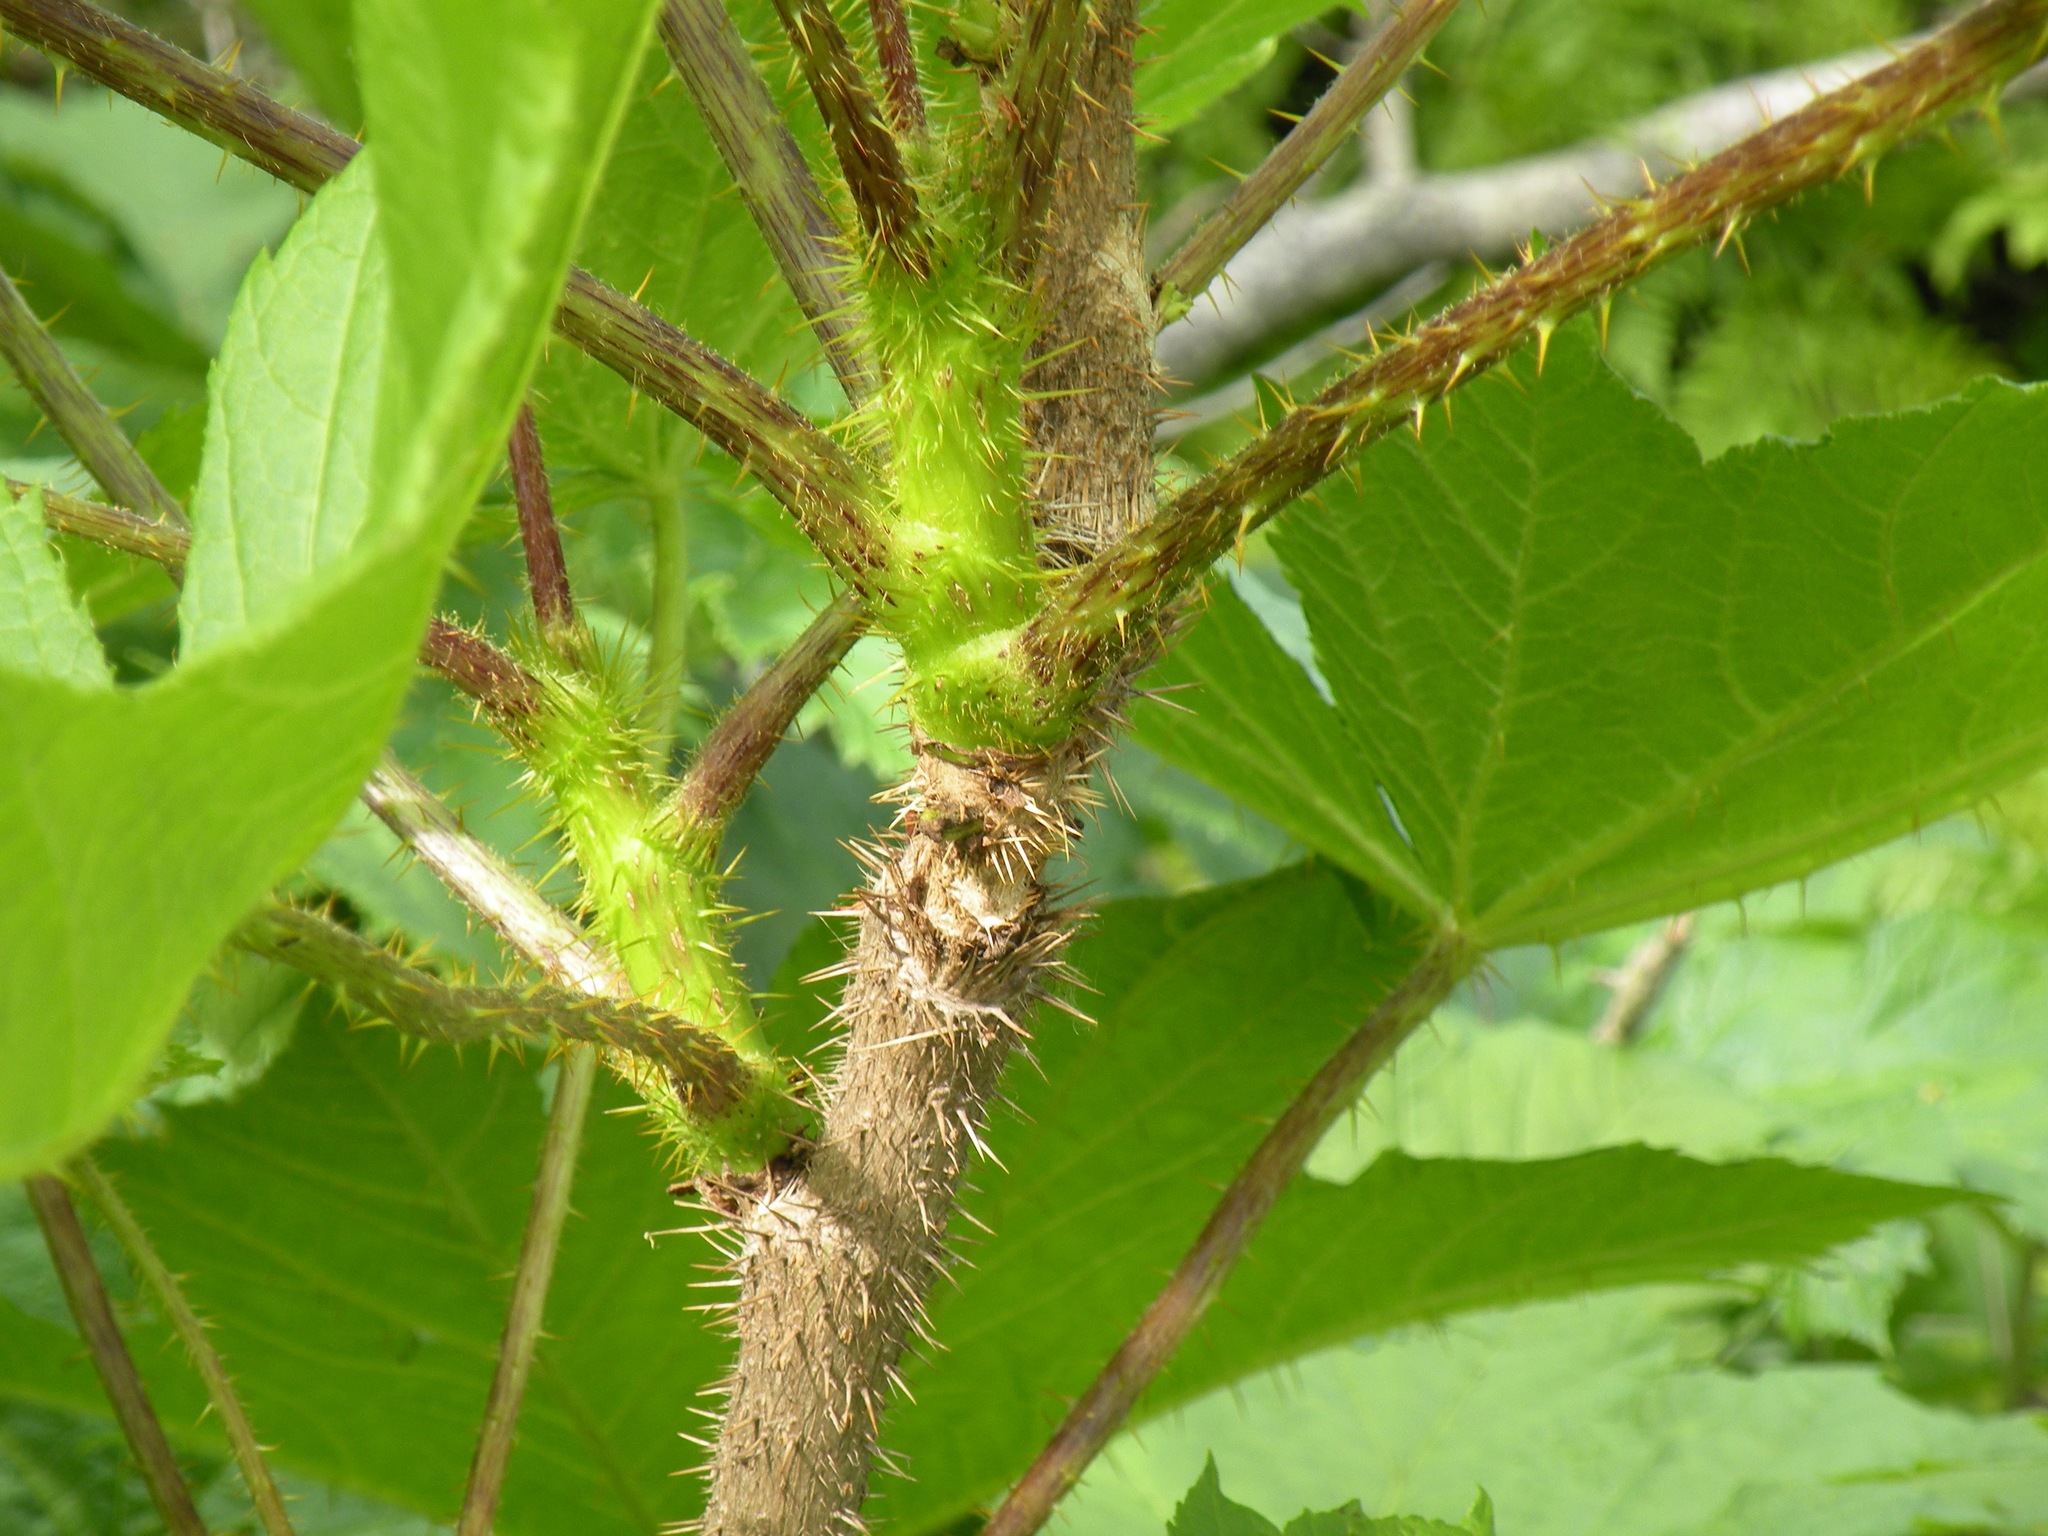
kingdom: Plantae
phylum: Tracheophyta
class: Magnoliopsida
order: Apiales
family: Araliaceae
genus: Oplopanax
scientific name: Oplopanax horridus
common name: Devil's walking-stick
